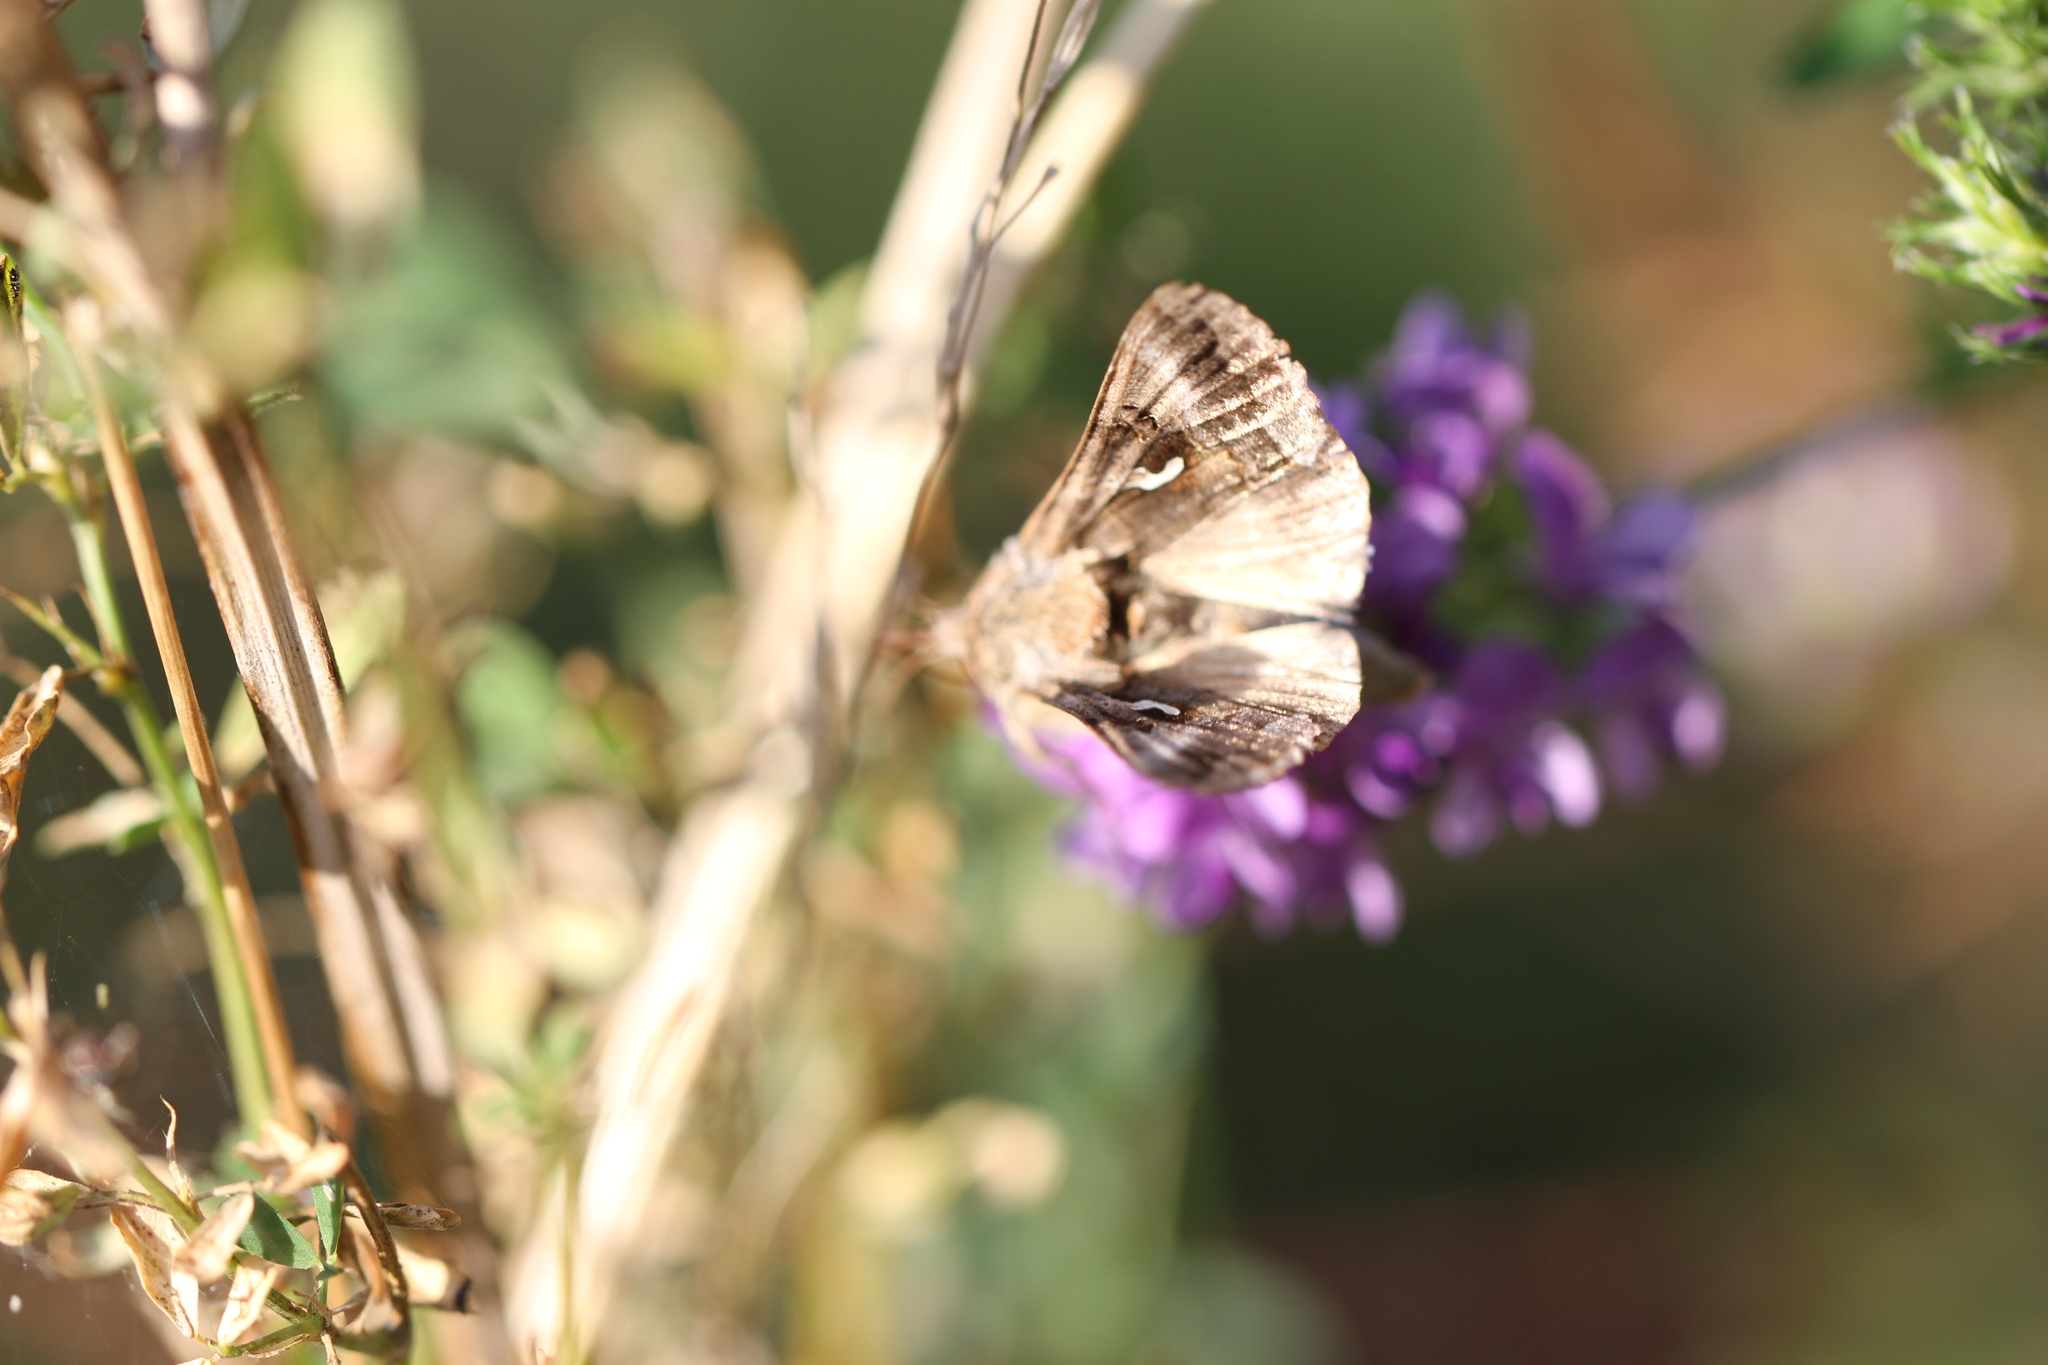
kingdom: Animalia
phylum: Arthropoda
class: Insecta
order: Lepidoptera
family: Noctuidae
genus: Autographa
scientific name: Autographa gamma
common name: Silver y
